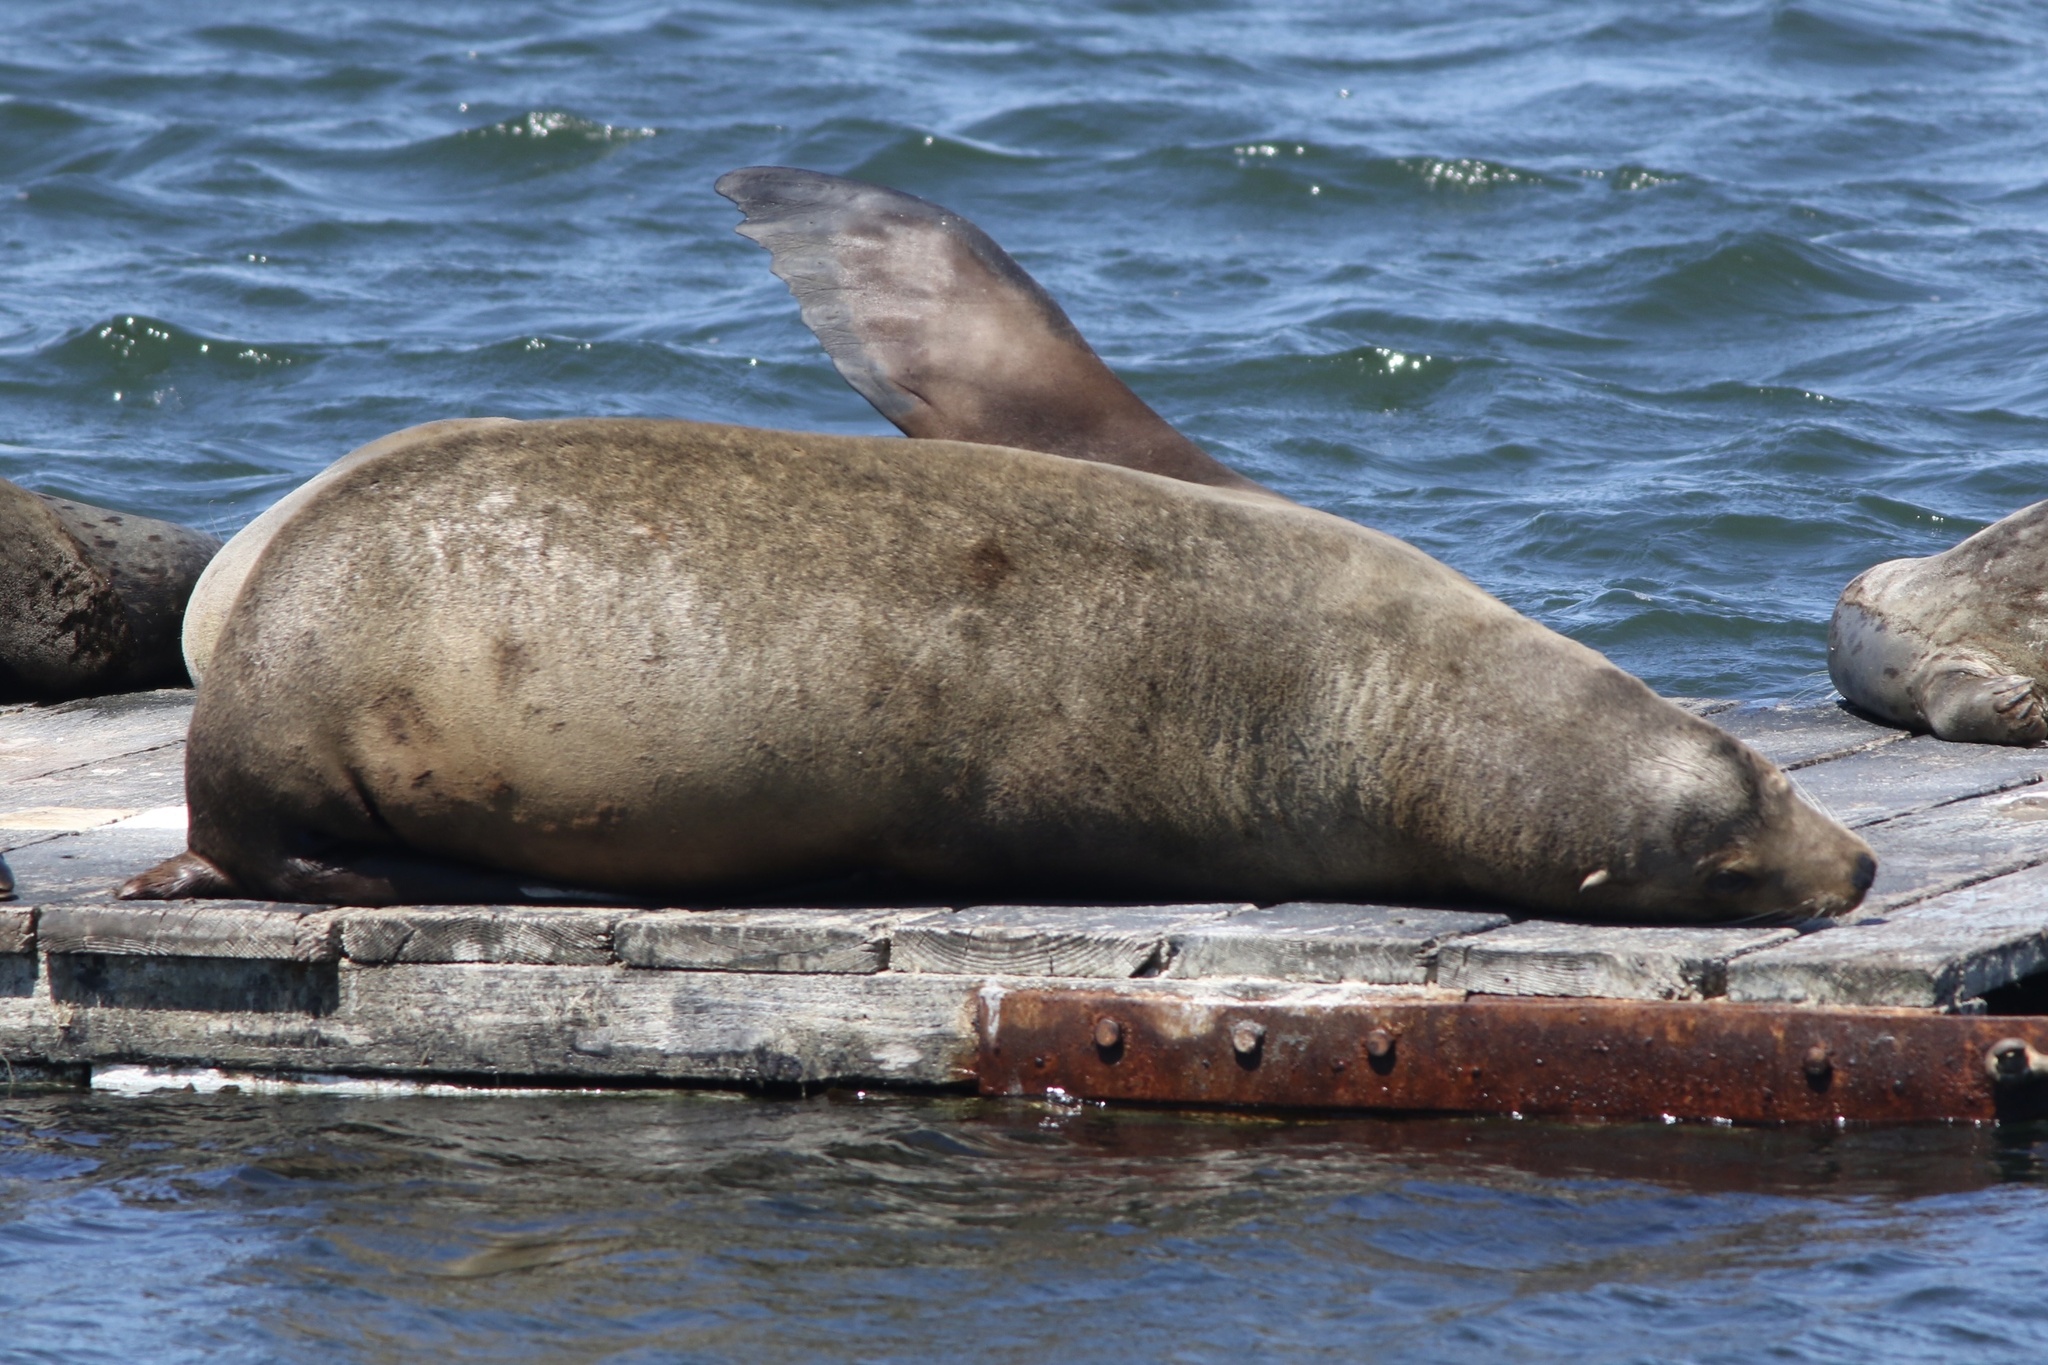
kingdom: Animalia
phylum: Chordata
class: Mammalia
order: Carnivora
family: Otariidae
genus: Zalophus
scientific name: Zalophus californianus
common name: California sea lion
